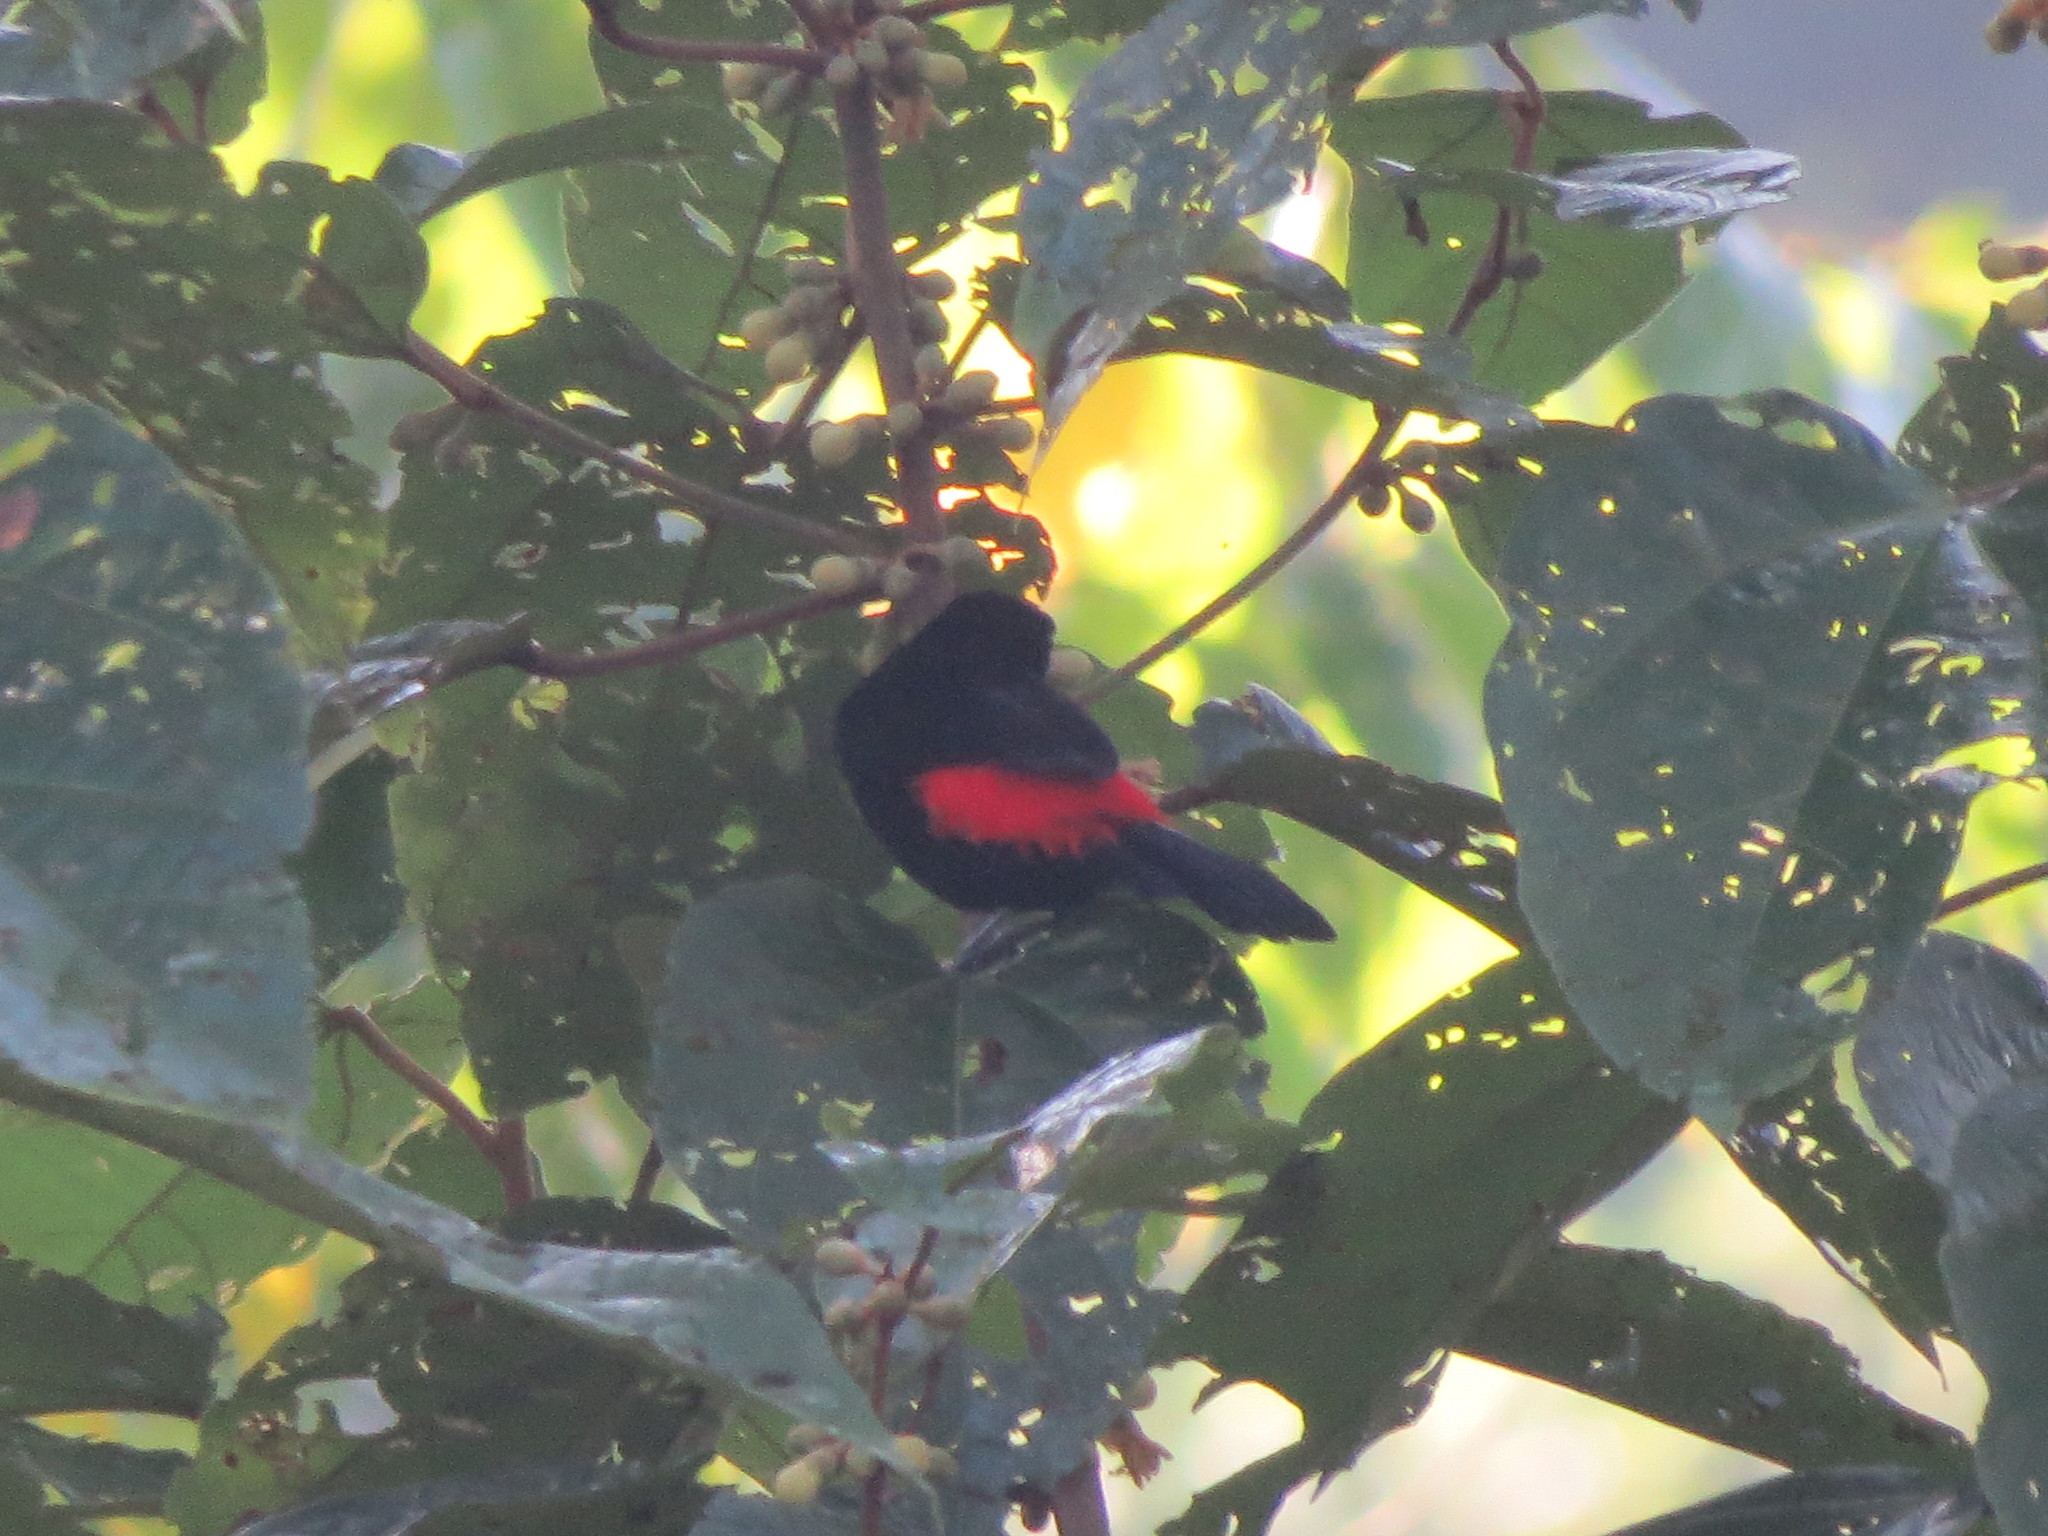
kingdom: Animalia
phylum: Chordata
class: Aves
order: Passeriformes
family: Thraupidae
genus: Ramphocelus
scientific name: Ramphocelus passerinii
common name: Passerini's tanager
